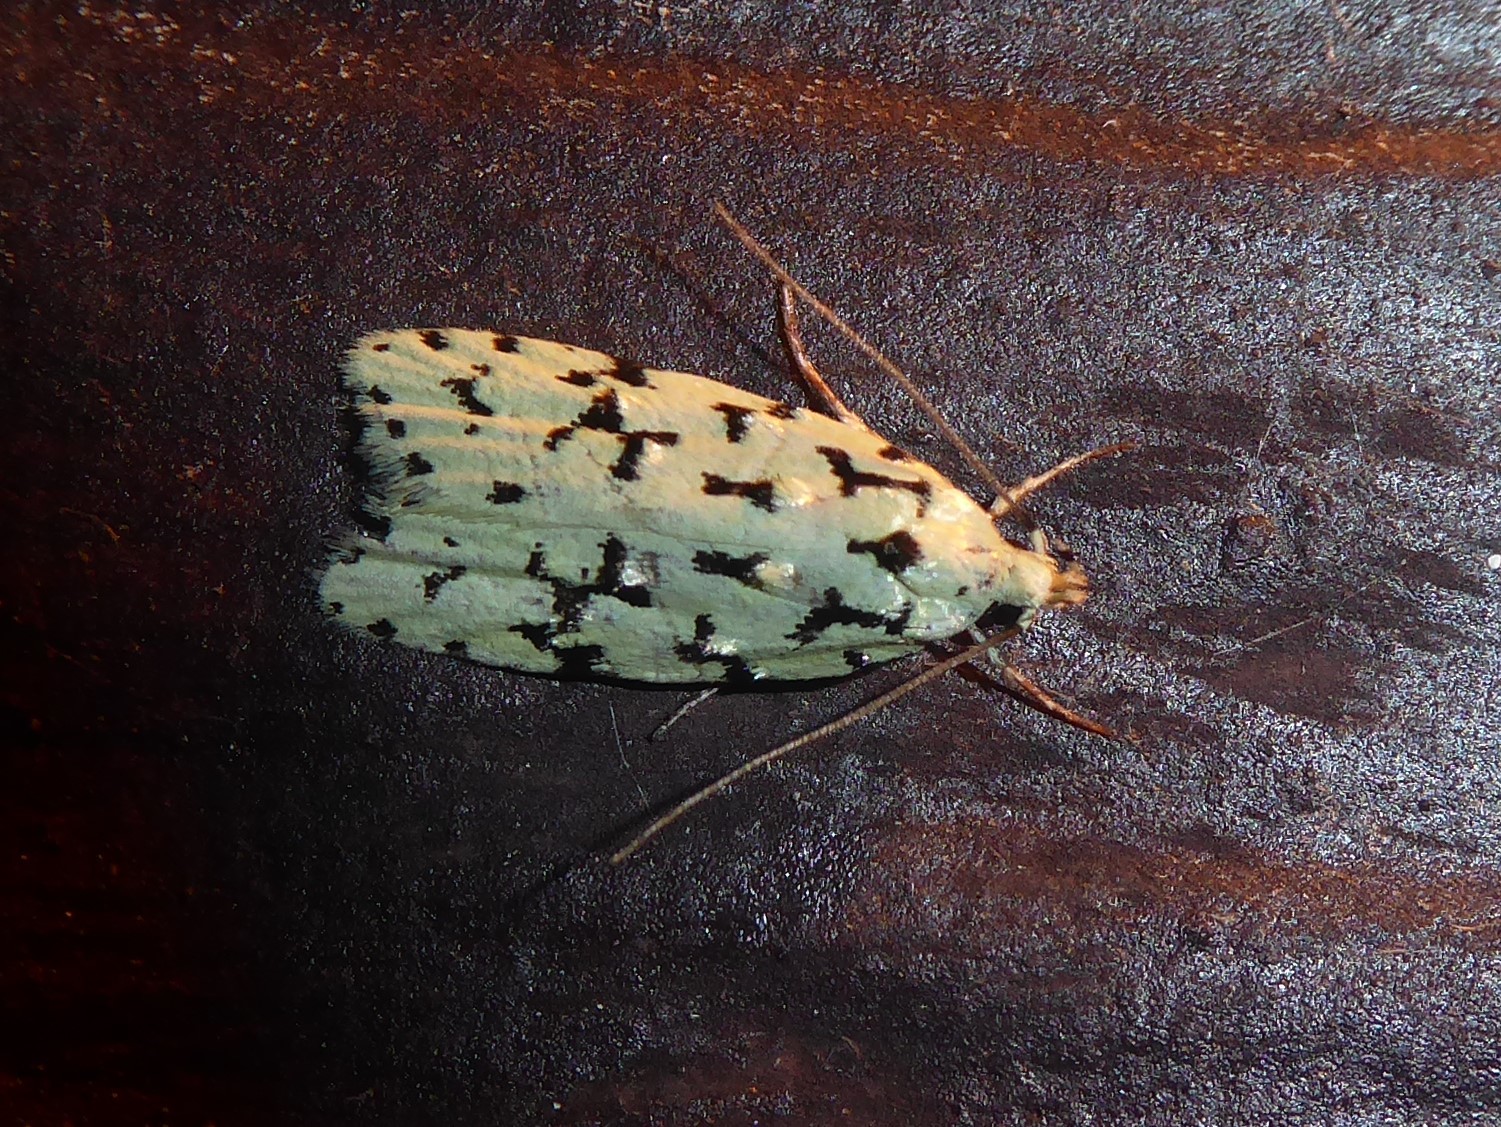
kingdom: Animalia
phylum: Arthropoda
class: Insecta
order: Lepidoptera
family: Oecophoridae
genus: Izatha
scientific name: Izatha huttoni
